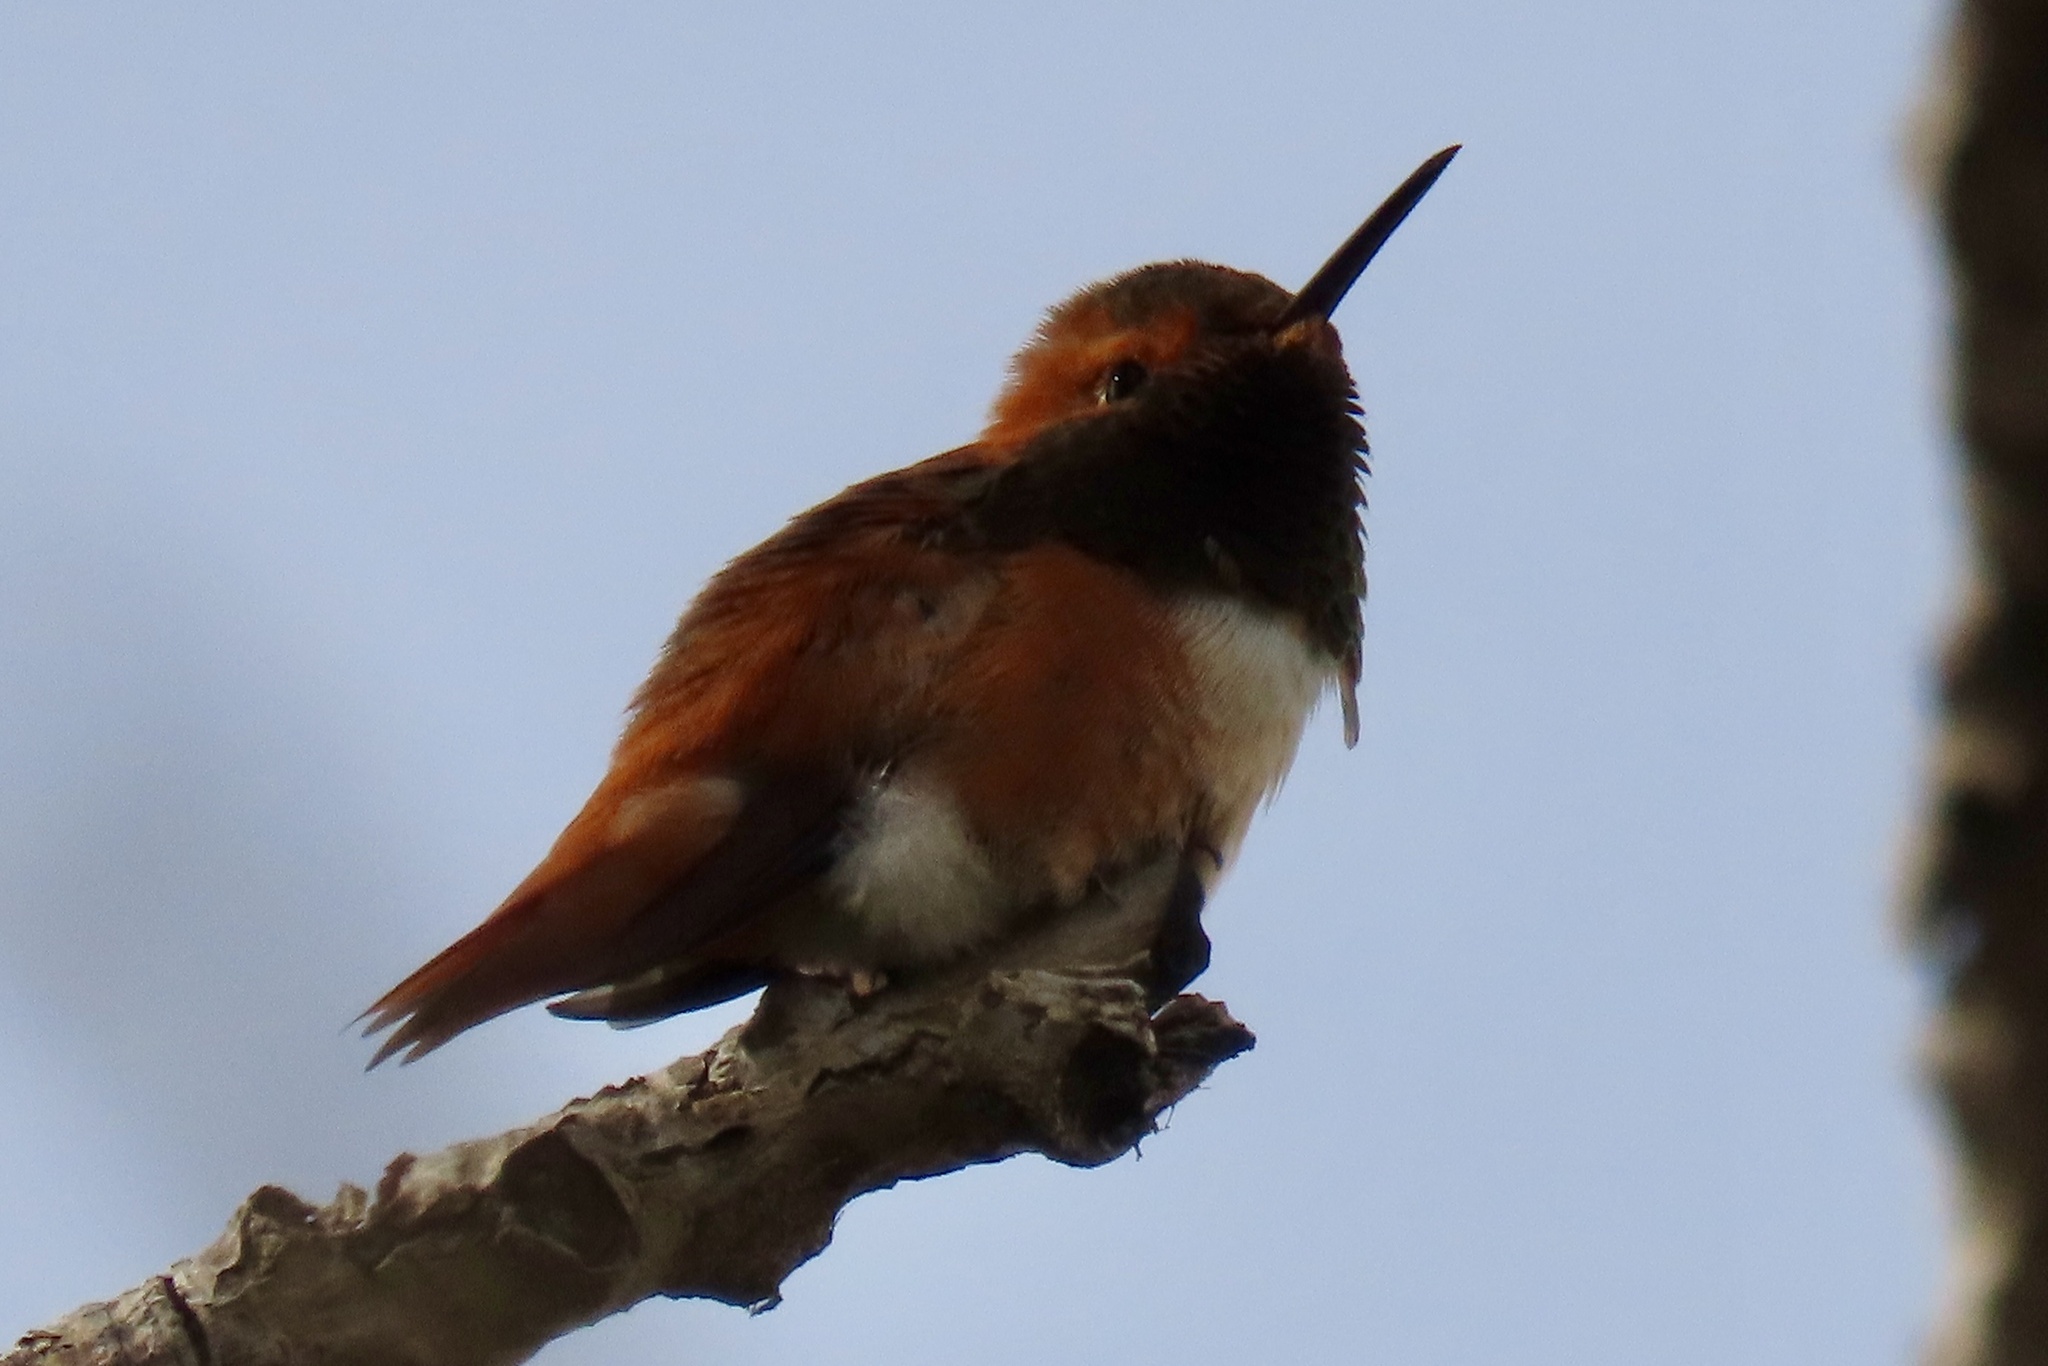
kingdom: Animalia
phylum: Chordata
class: Aves
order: Apodiformes
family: Trochilidae
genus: Selasphorus
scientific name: Selasphorus sasin
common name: Allen's hummingbird
